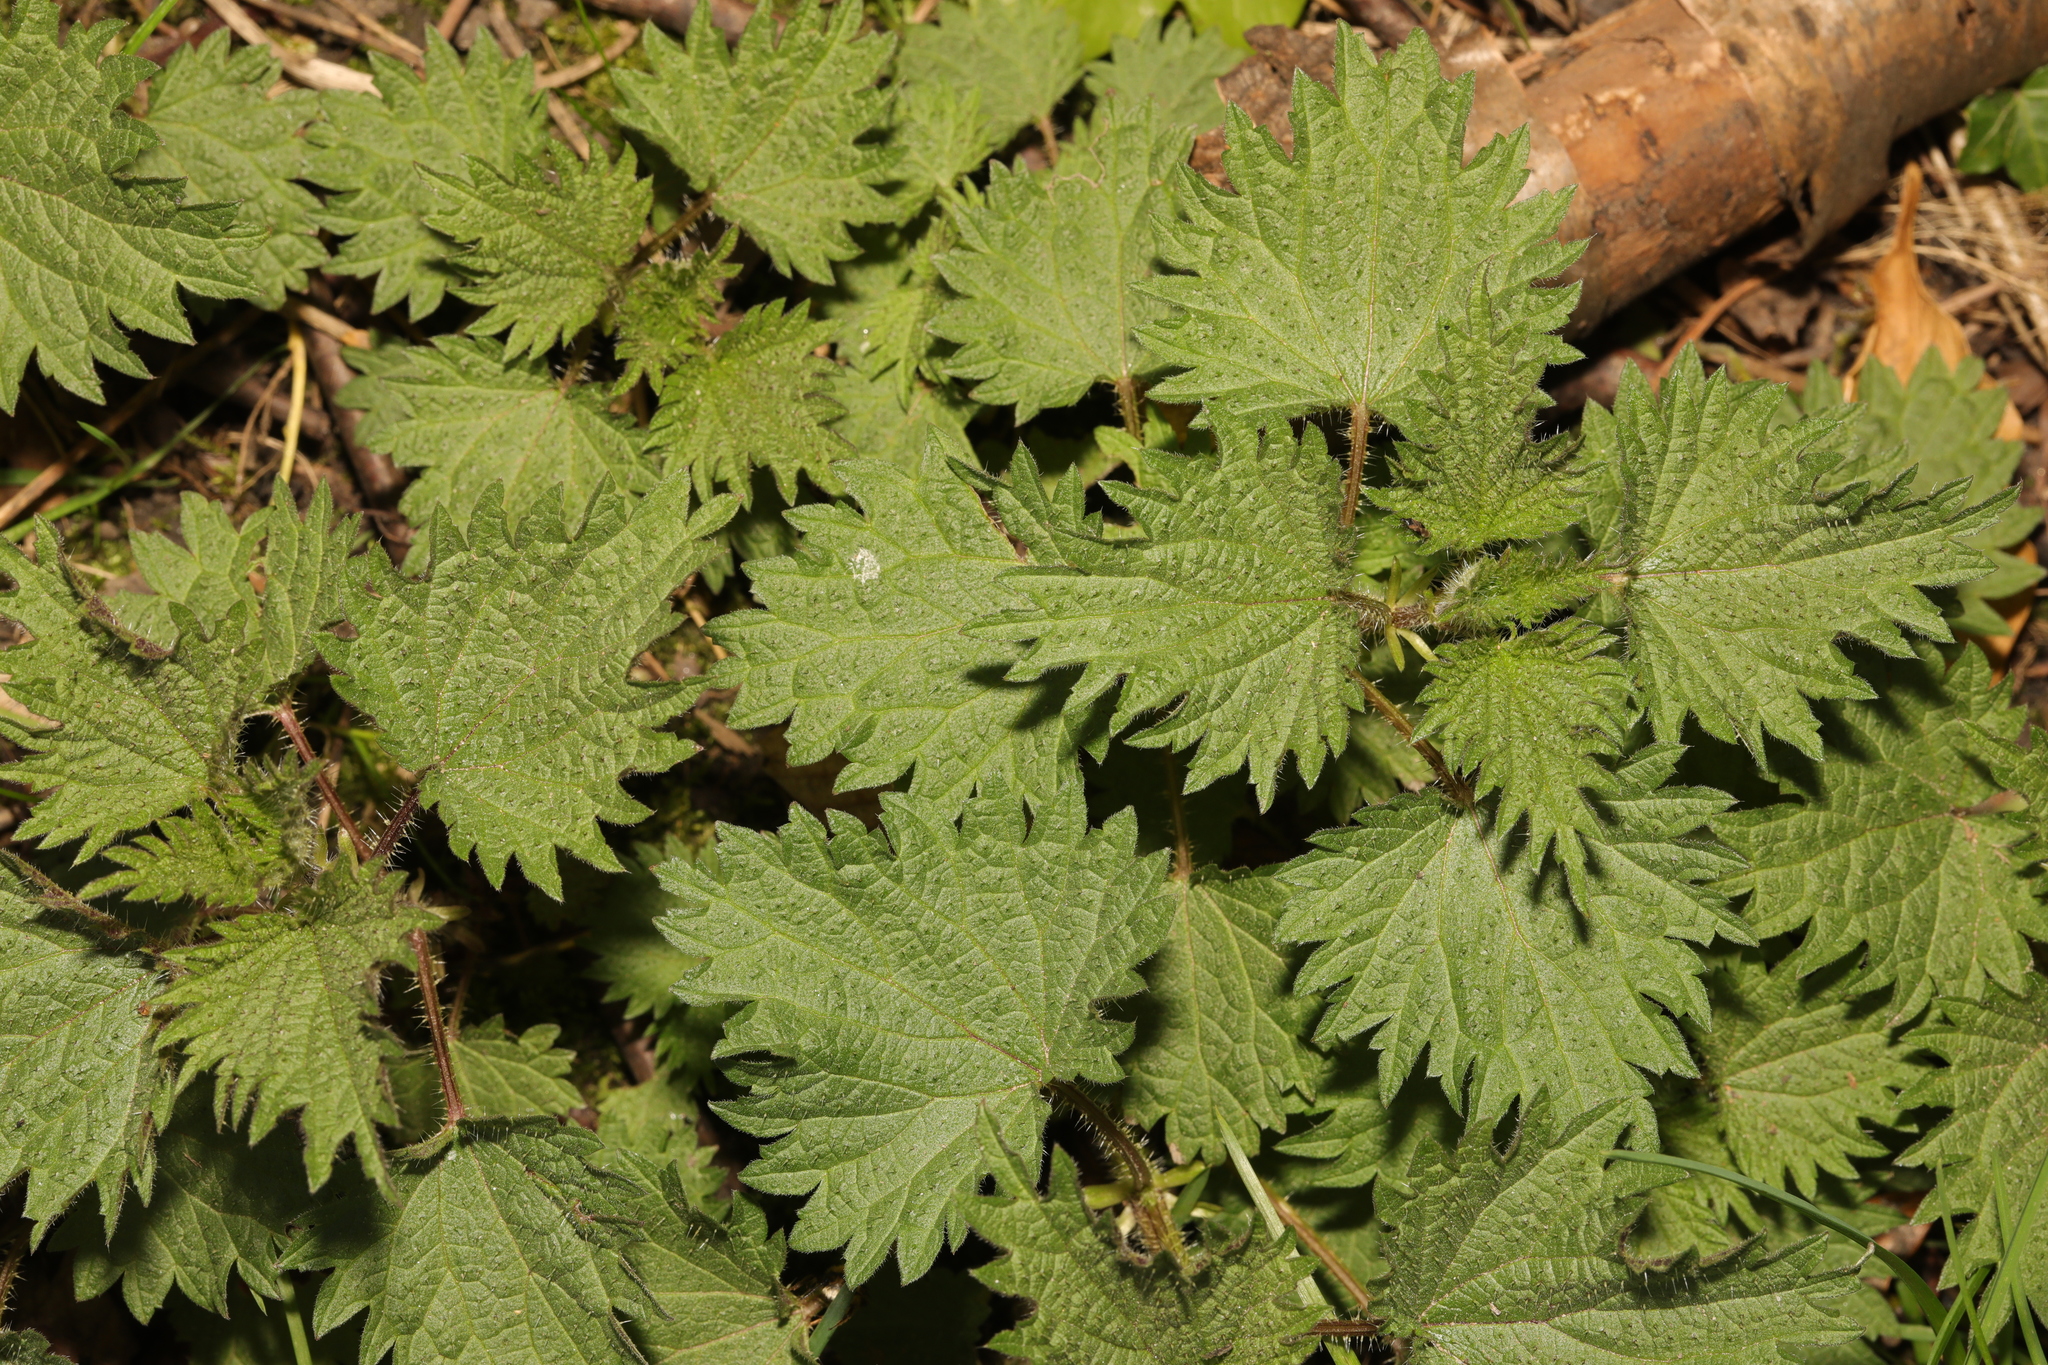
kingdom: Plantae
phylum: Tracheophyta
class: Magnoliopsida
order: Rosales
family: Urticaceae
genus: Urtica
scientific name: Urtica dioica
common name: Common nettle
